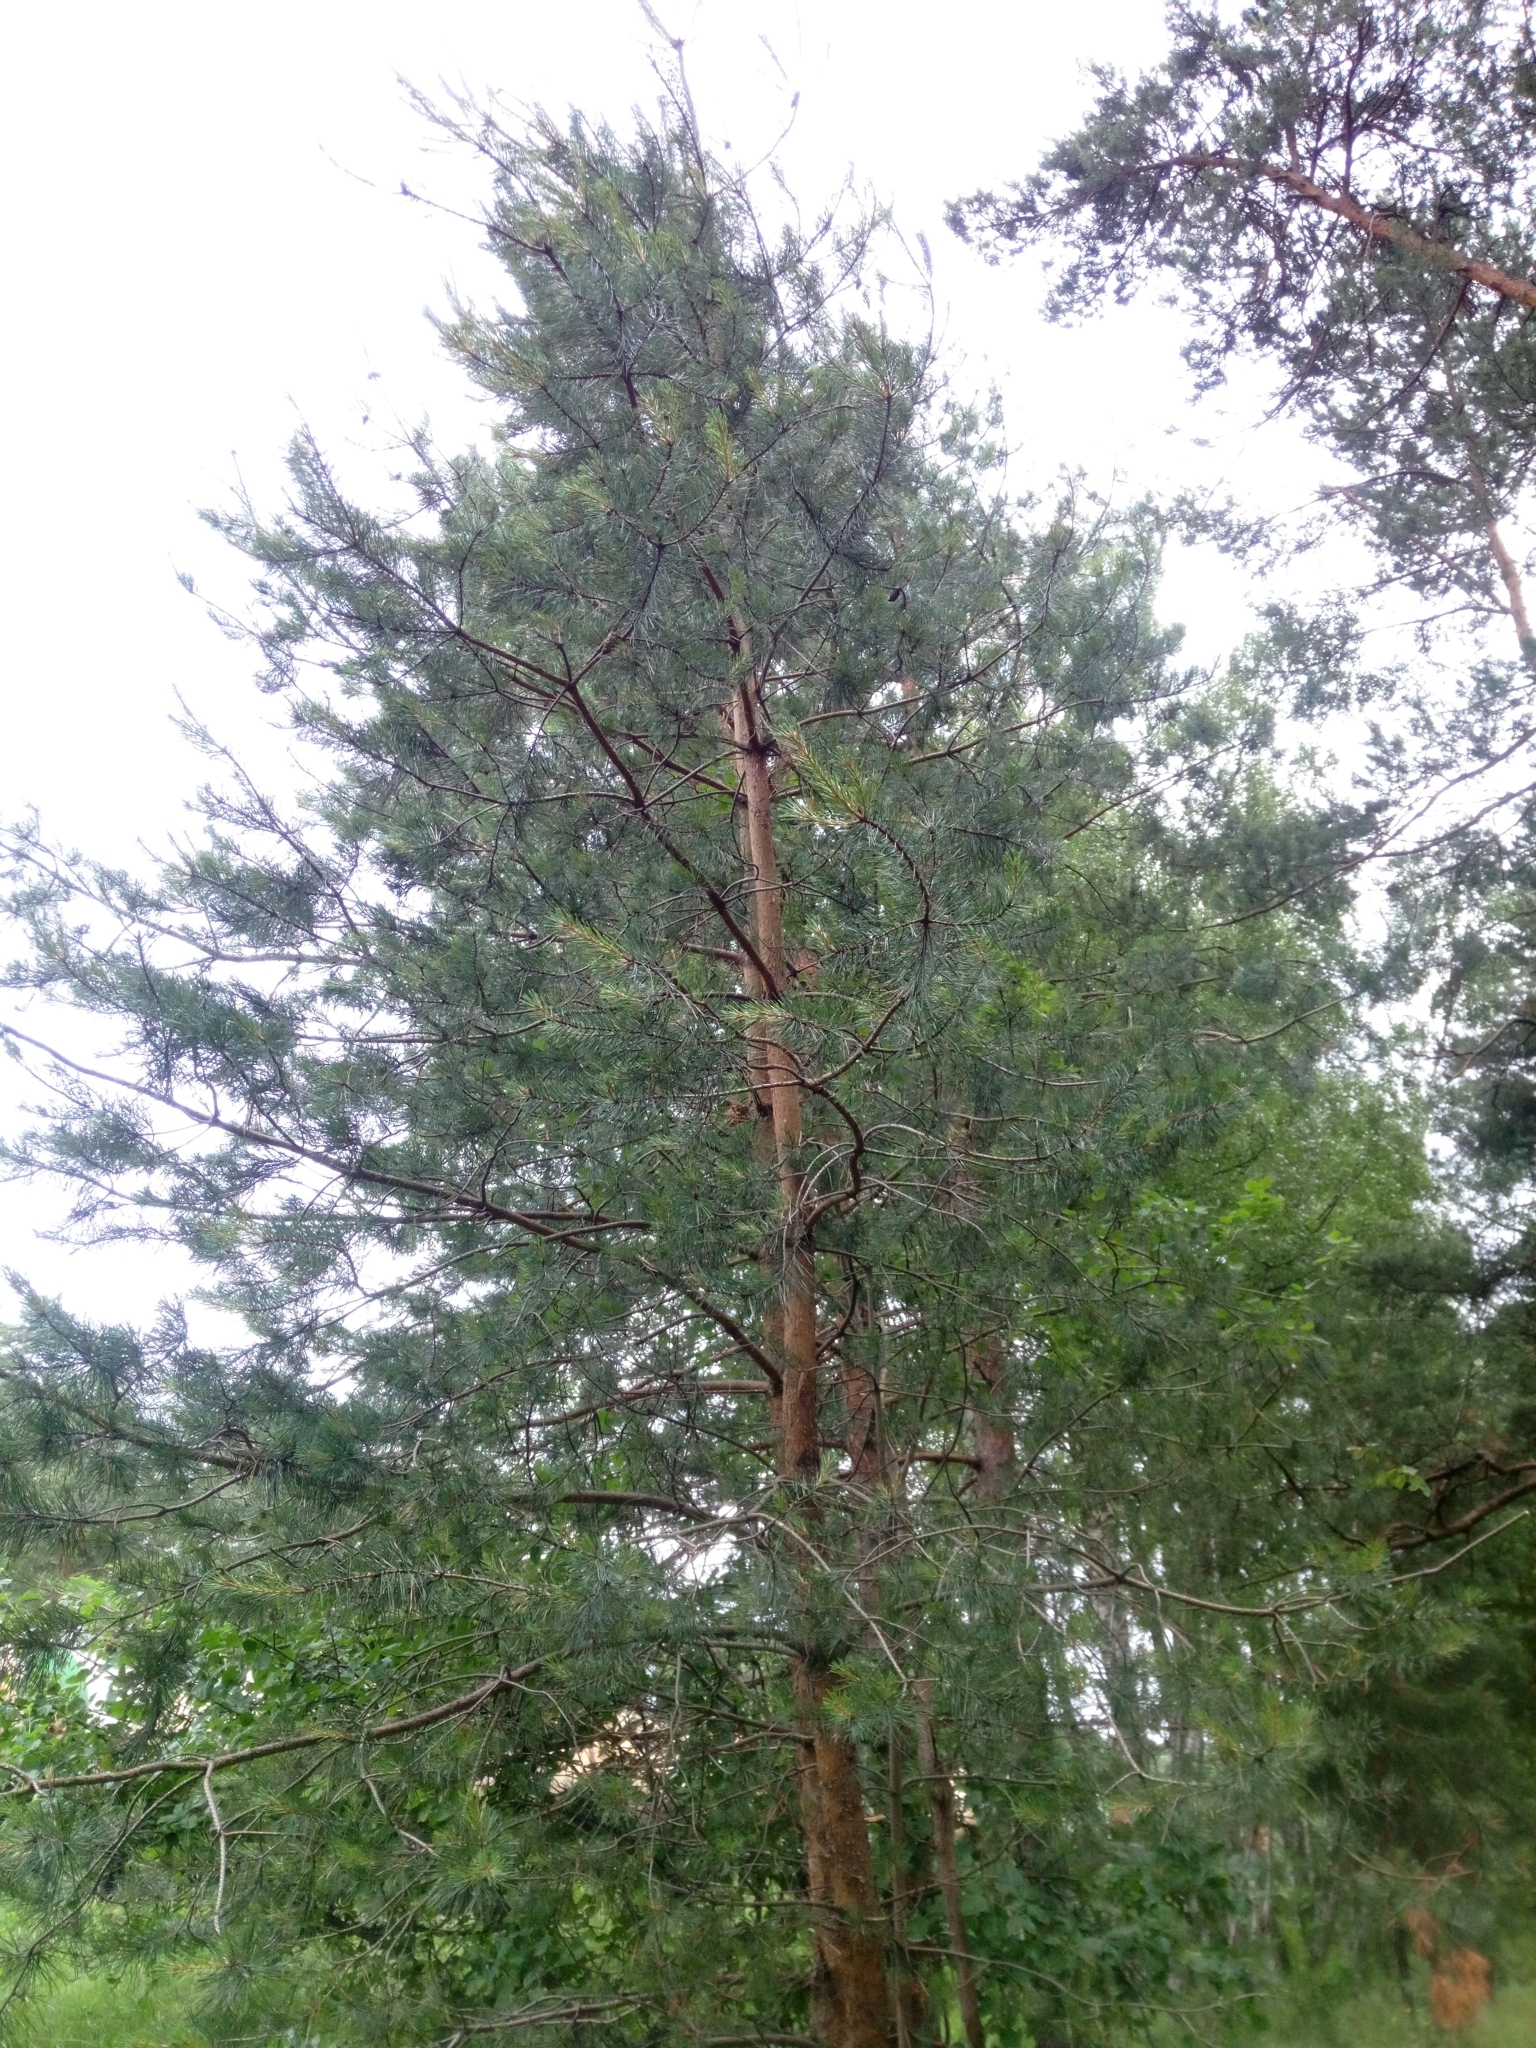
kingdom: Plantae
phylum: Tracheophyta
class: Pinopsida
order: Pinales
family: Pinaceae
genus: Pinus
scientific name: Pinus sylvestris
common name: Scots pine
